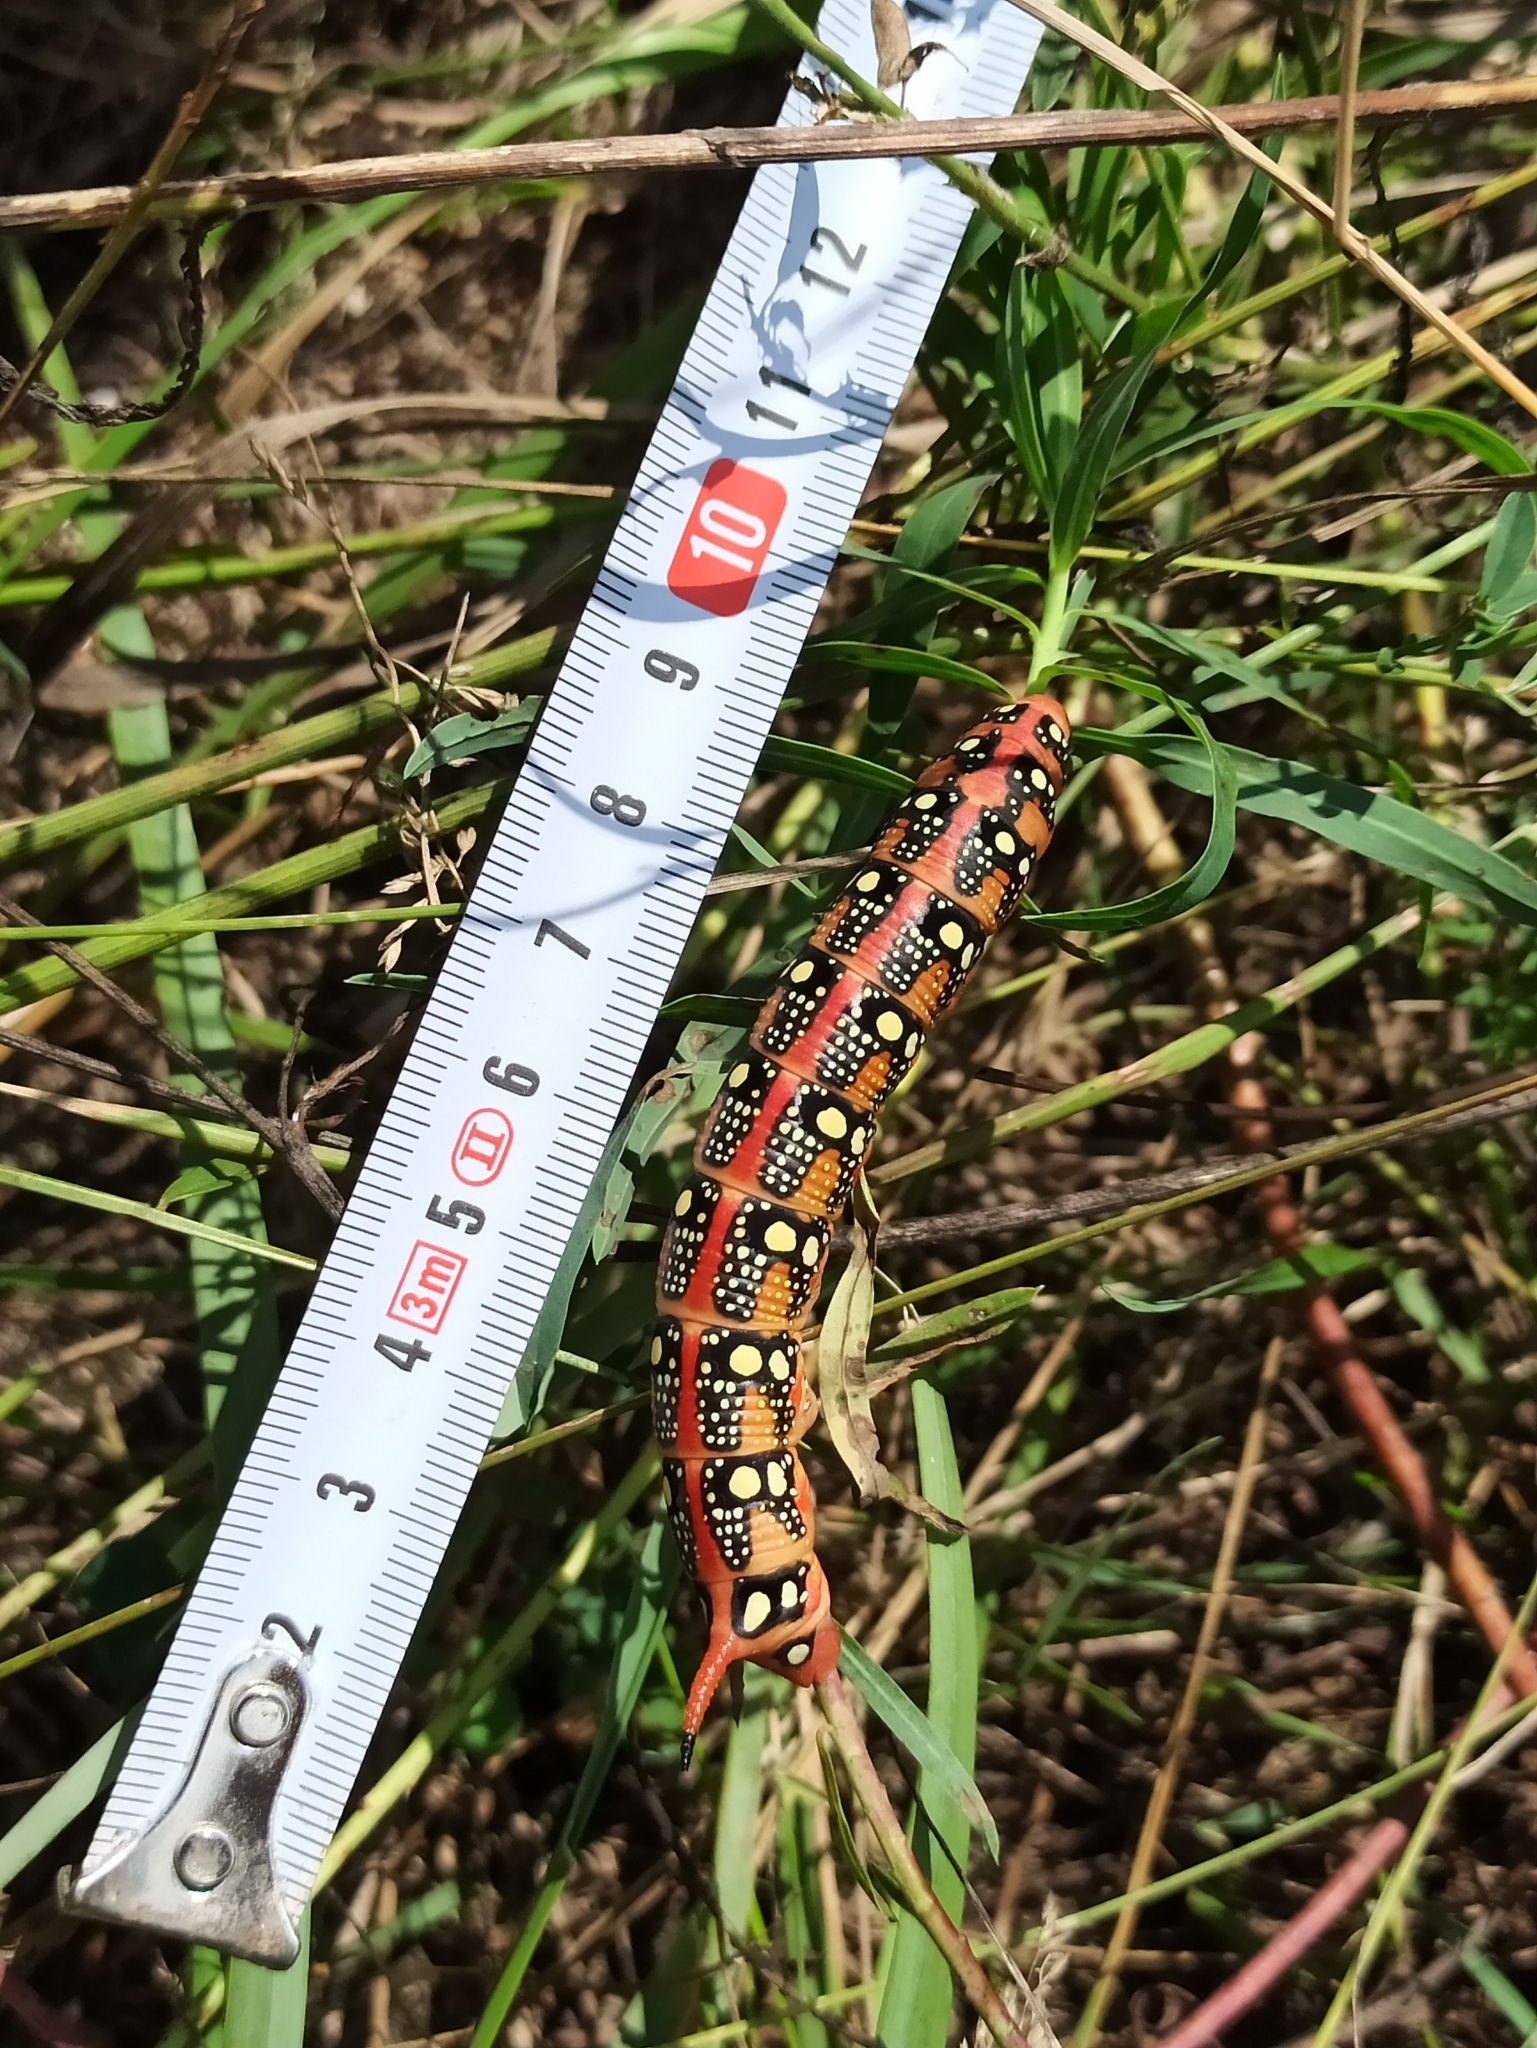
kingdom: Animalia
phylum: Arthropoda
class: Insecta
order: Lepidoptera
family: Sphingidae
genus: Hyles
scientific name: Hyles euphorbiae
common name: Spurge hawk-moth
